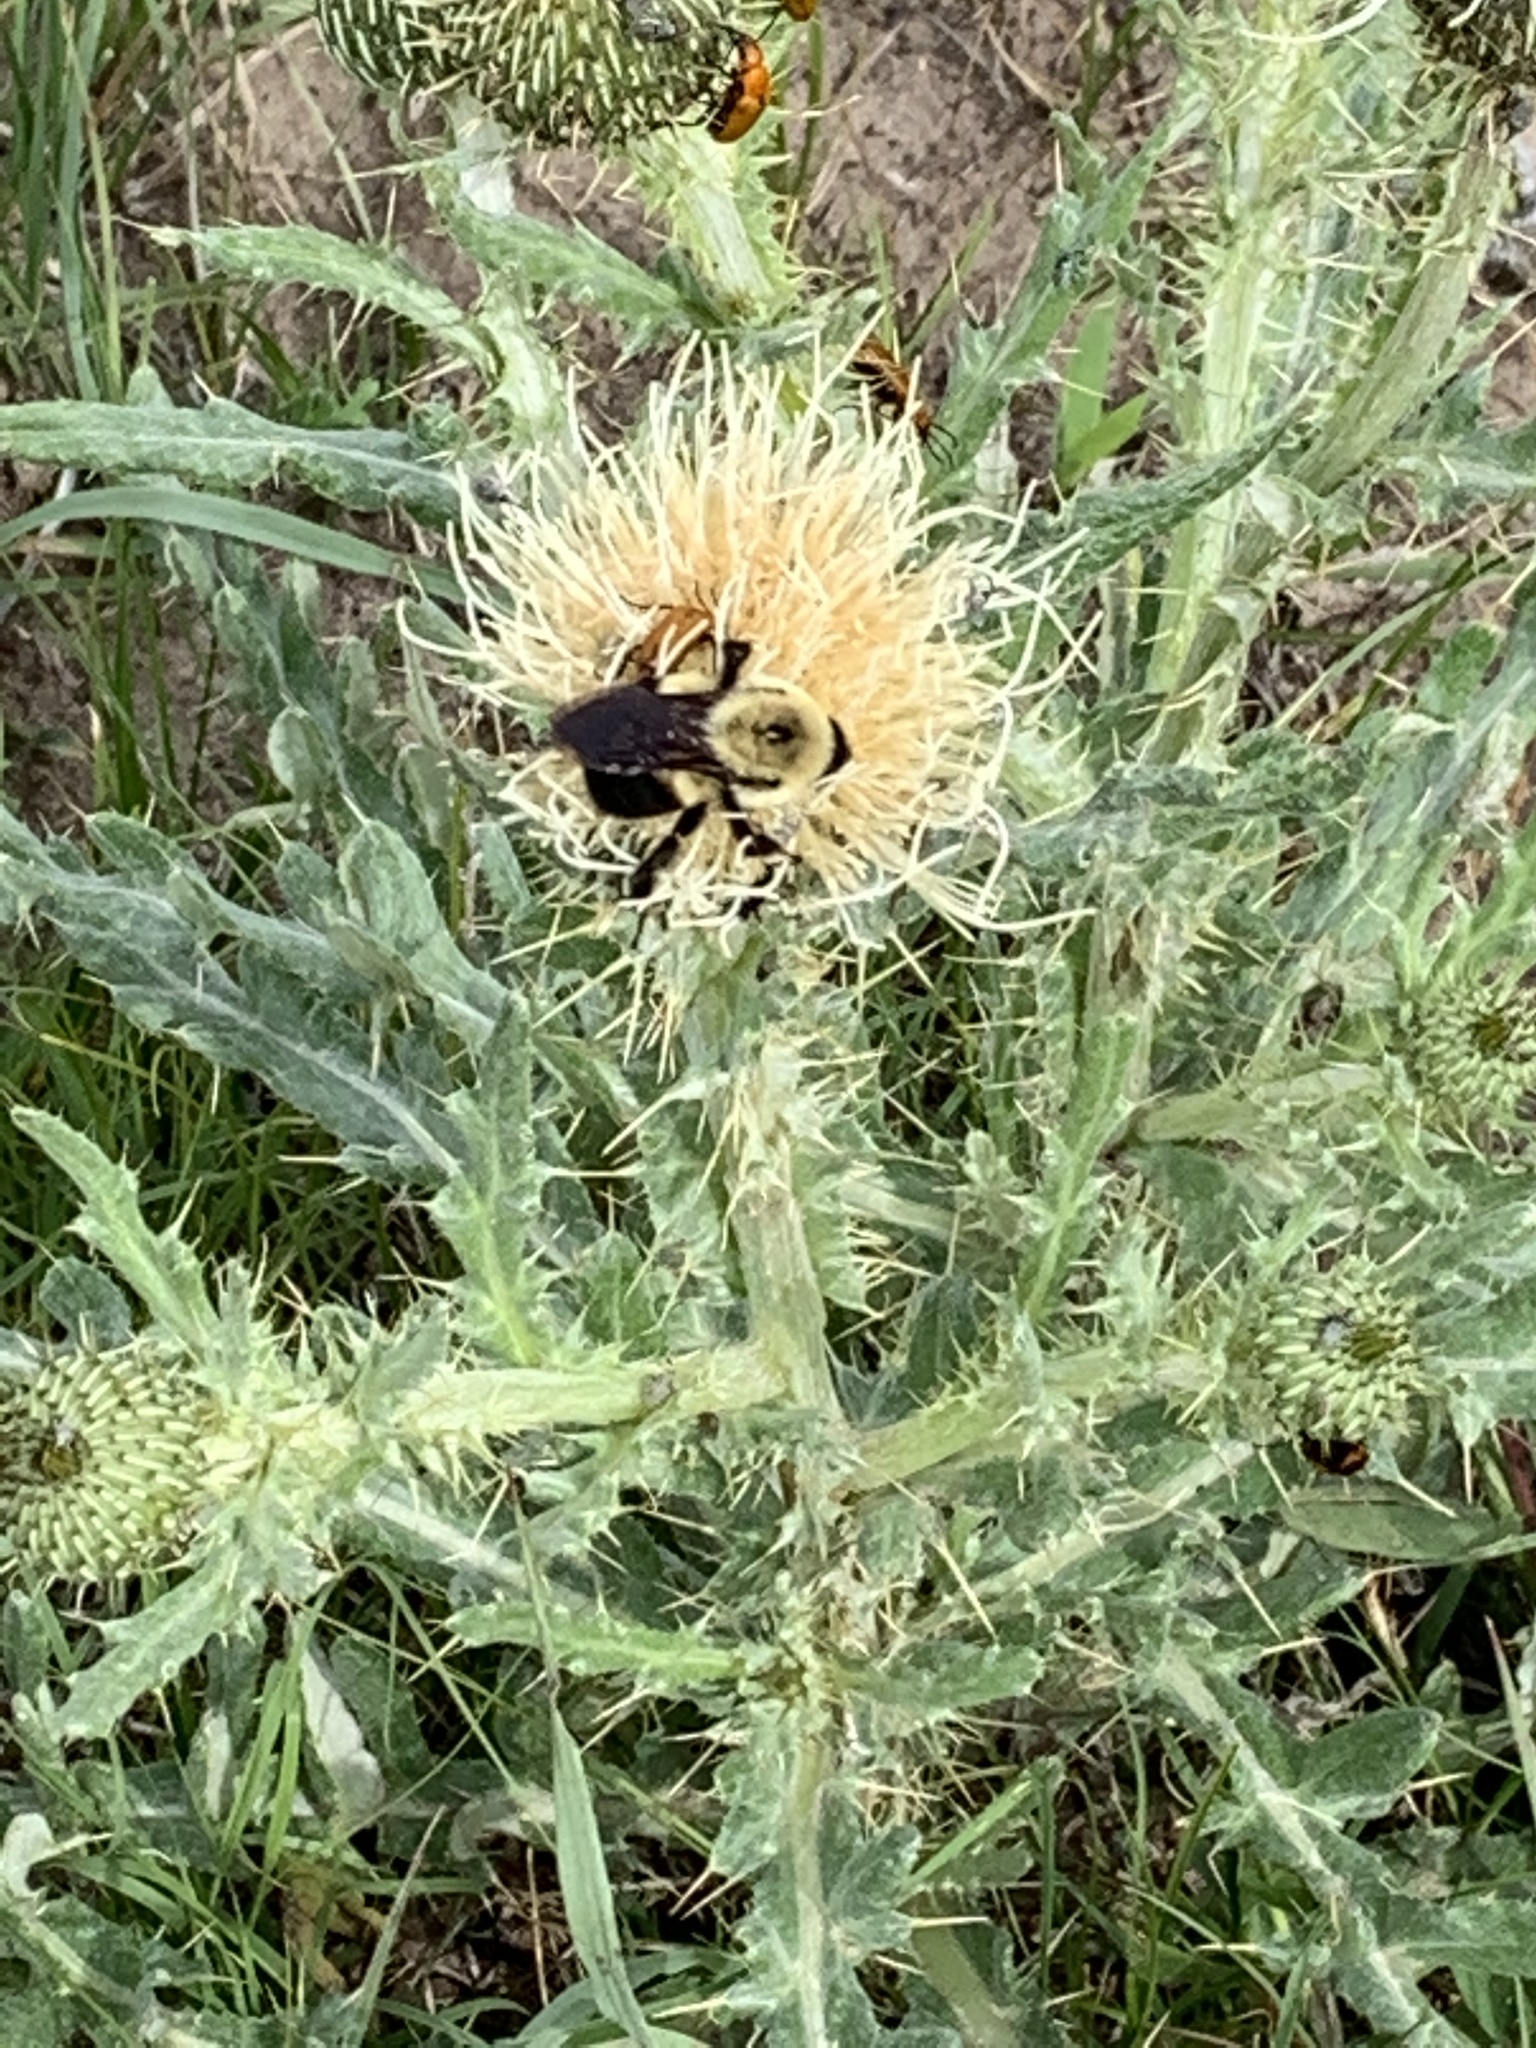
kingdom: Animalia
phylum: Arthropoda
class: Insecta
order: Hymenoptera
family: Apidae
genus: Bombus
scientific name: Bombus griseocollis
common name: Brown-belted bumble bee
